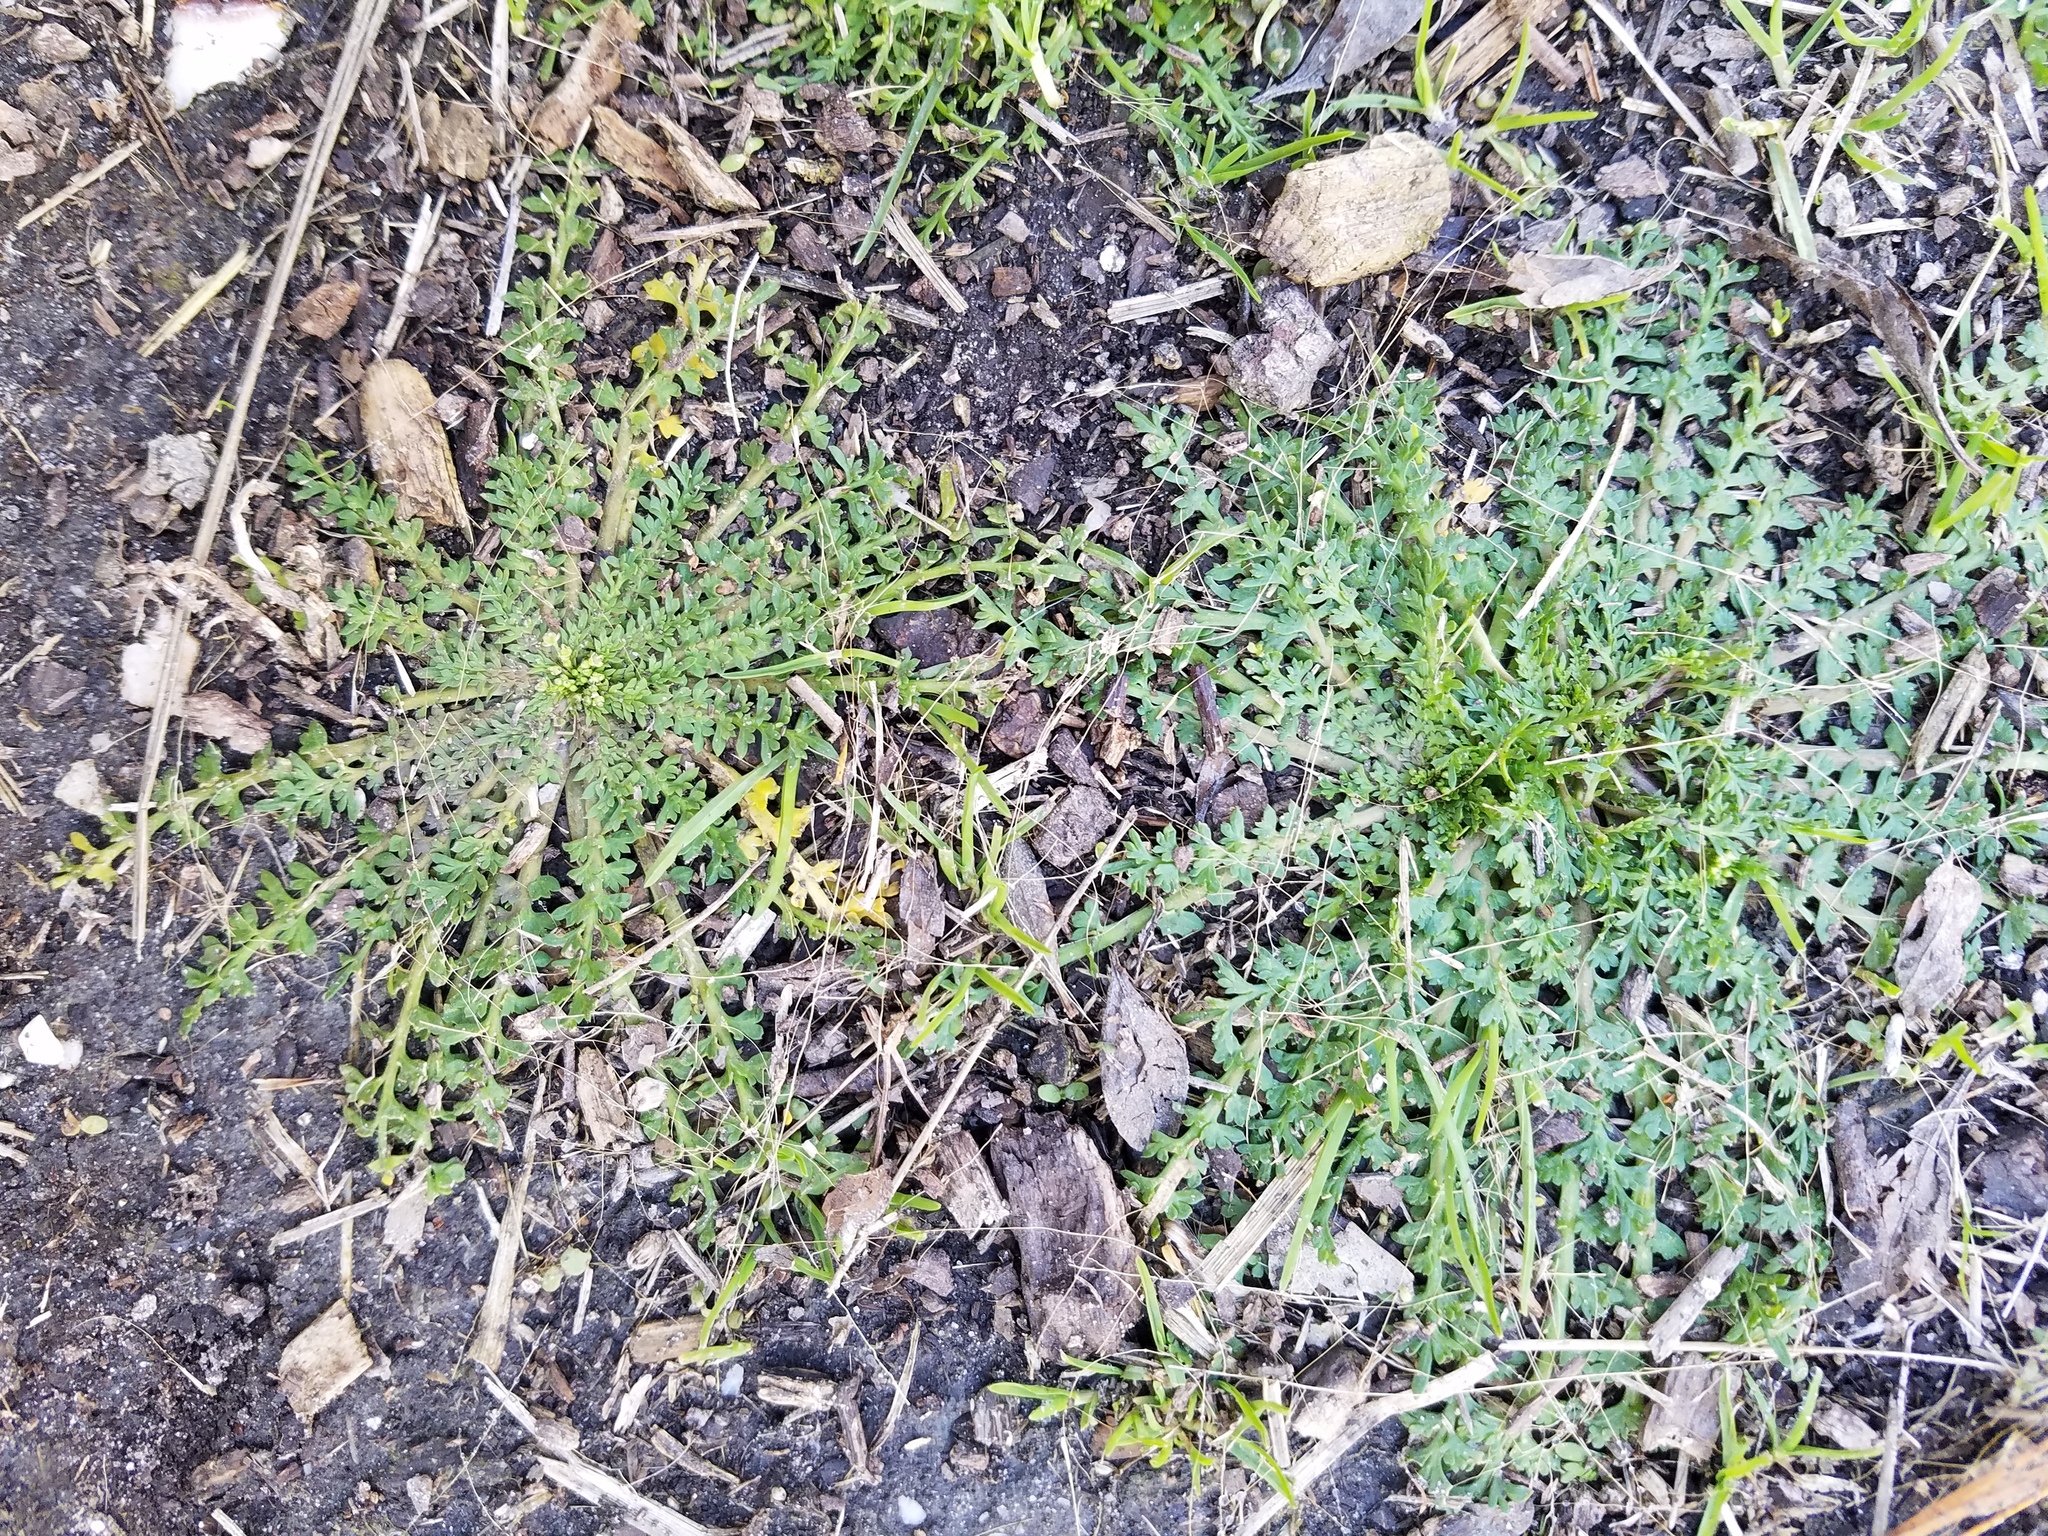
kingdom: Plantae
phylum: Tracheophyta
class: Magnoliopsida
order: Brassicales
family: Brassicaceae
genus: Lepidium
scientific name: Lepidium didymum
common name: Lesser swinecress
